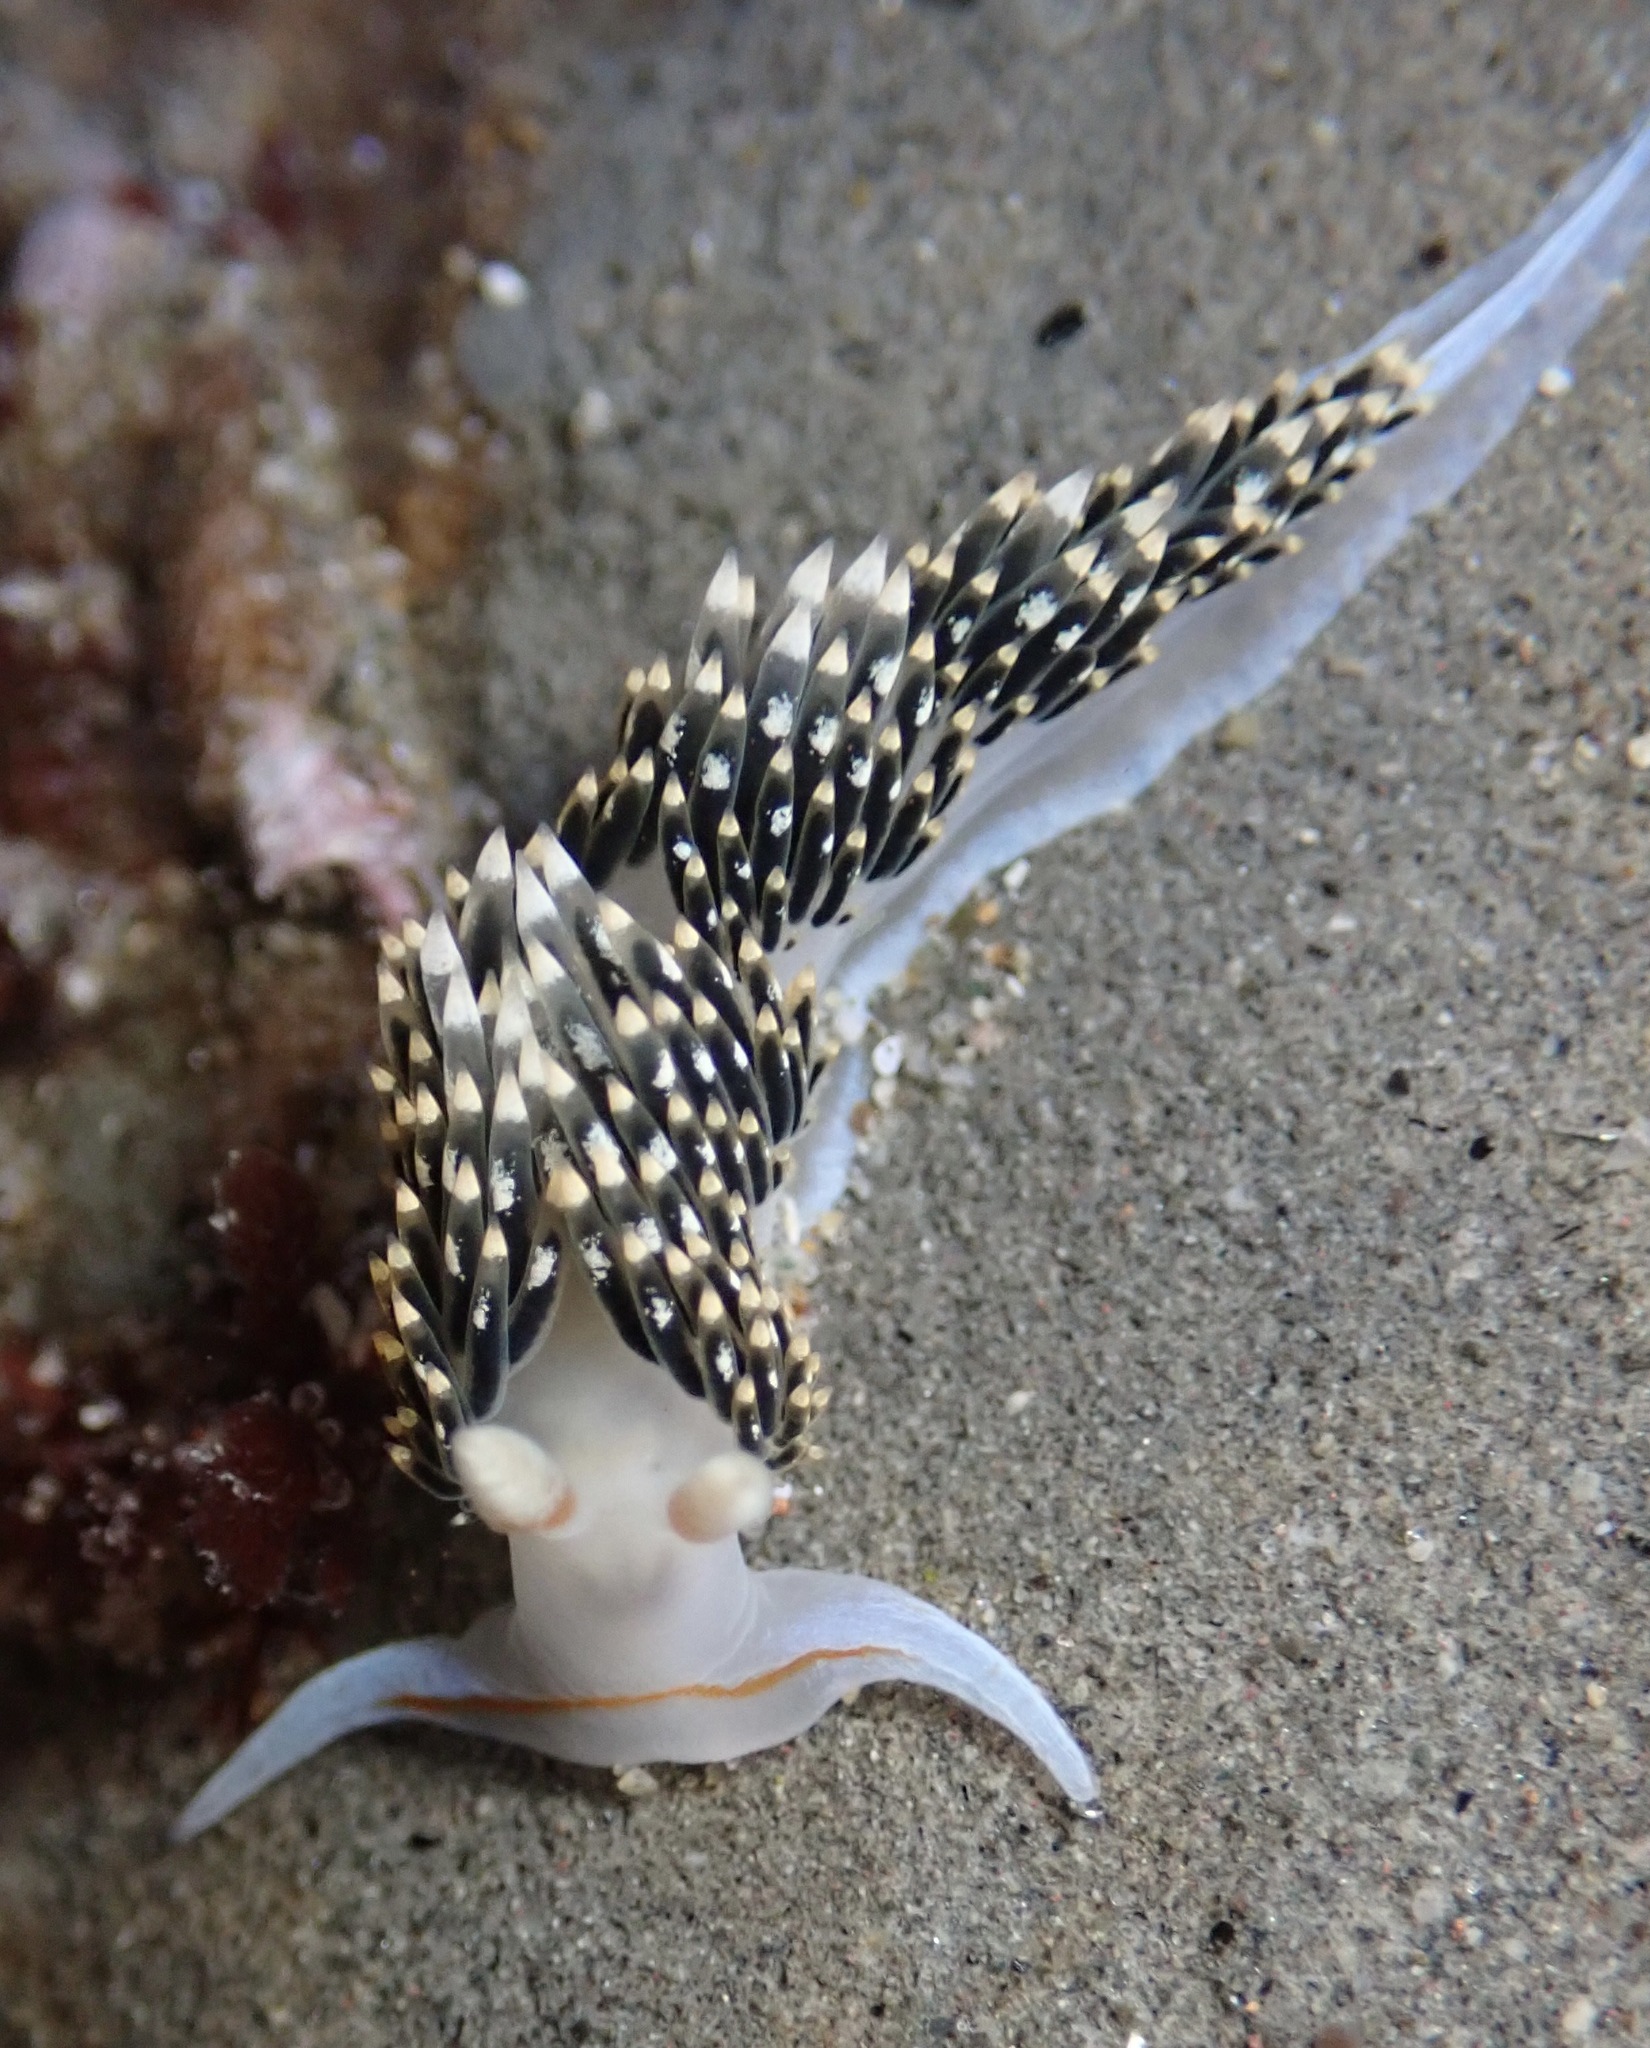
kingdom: Animalia
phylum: Mollusca
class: Gastropoda
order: Nudibranchia
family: Facelinidae
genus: Phidiana
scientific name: Phidiana hiltoni
